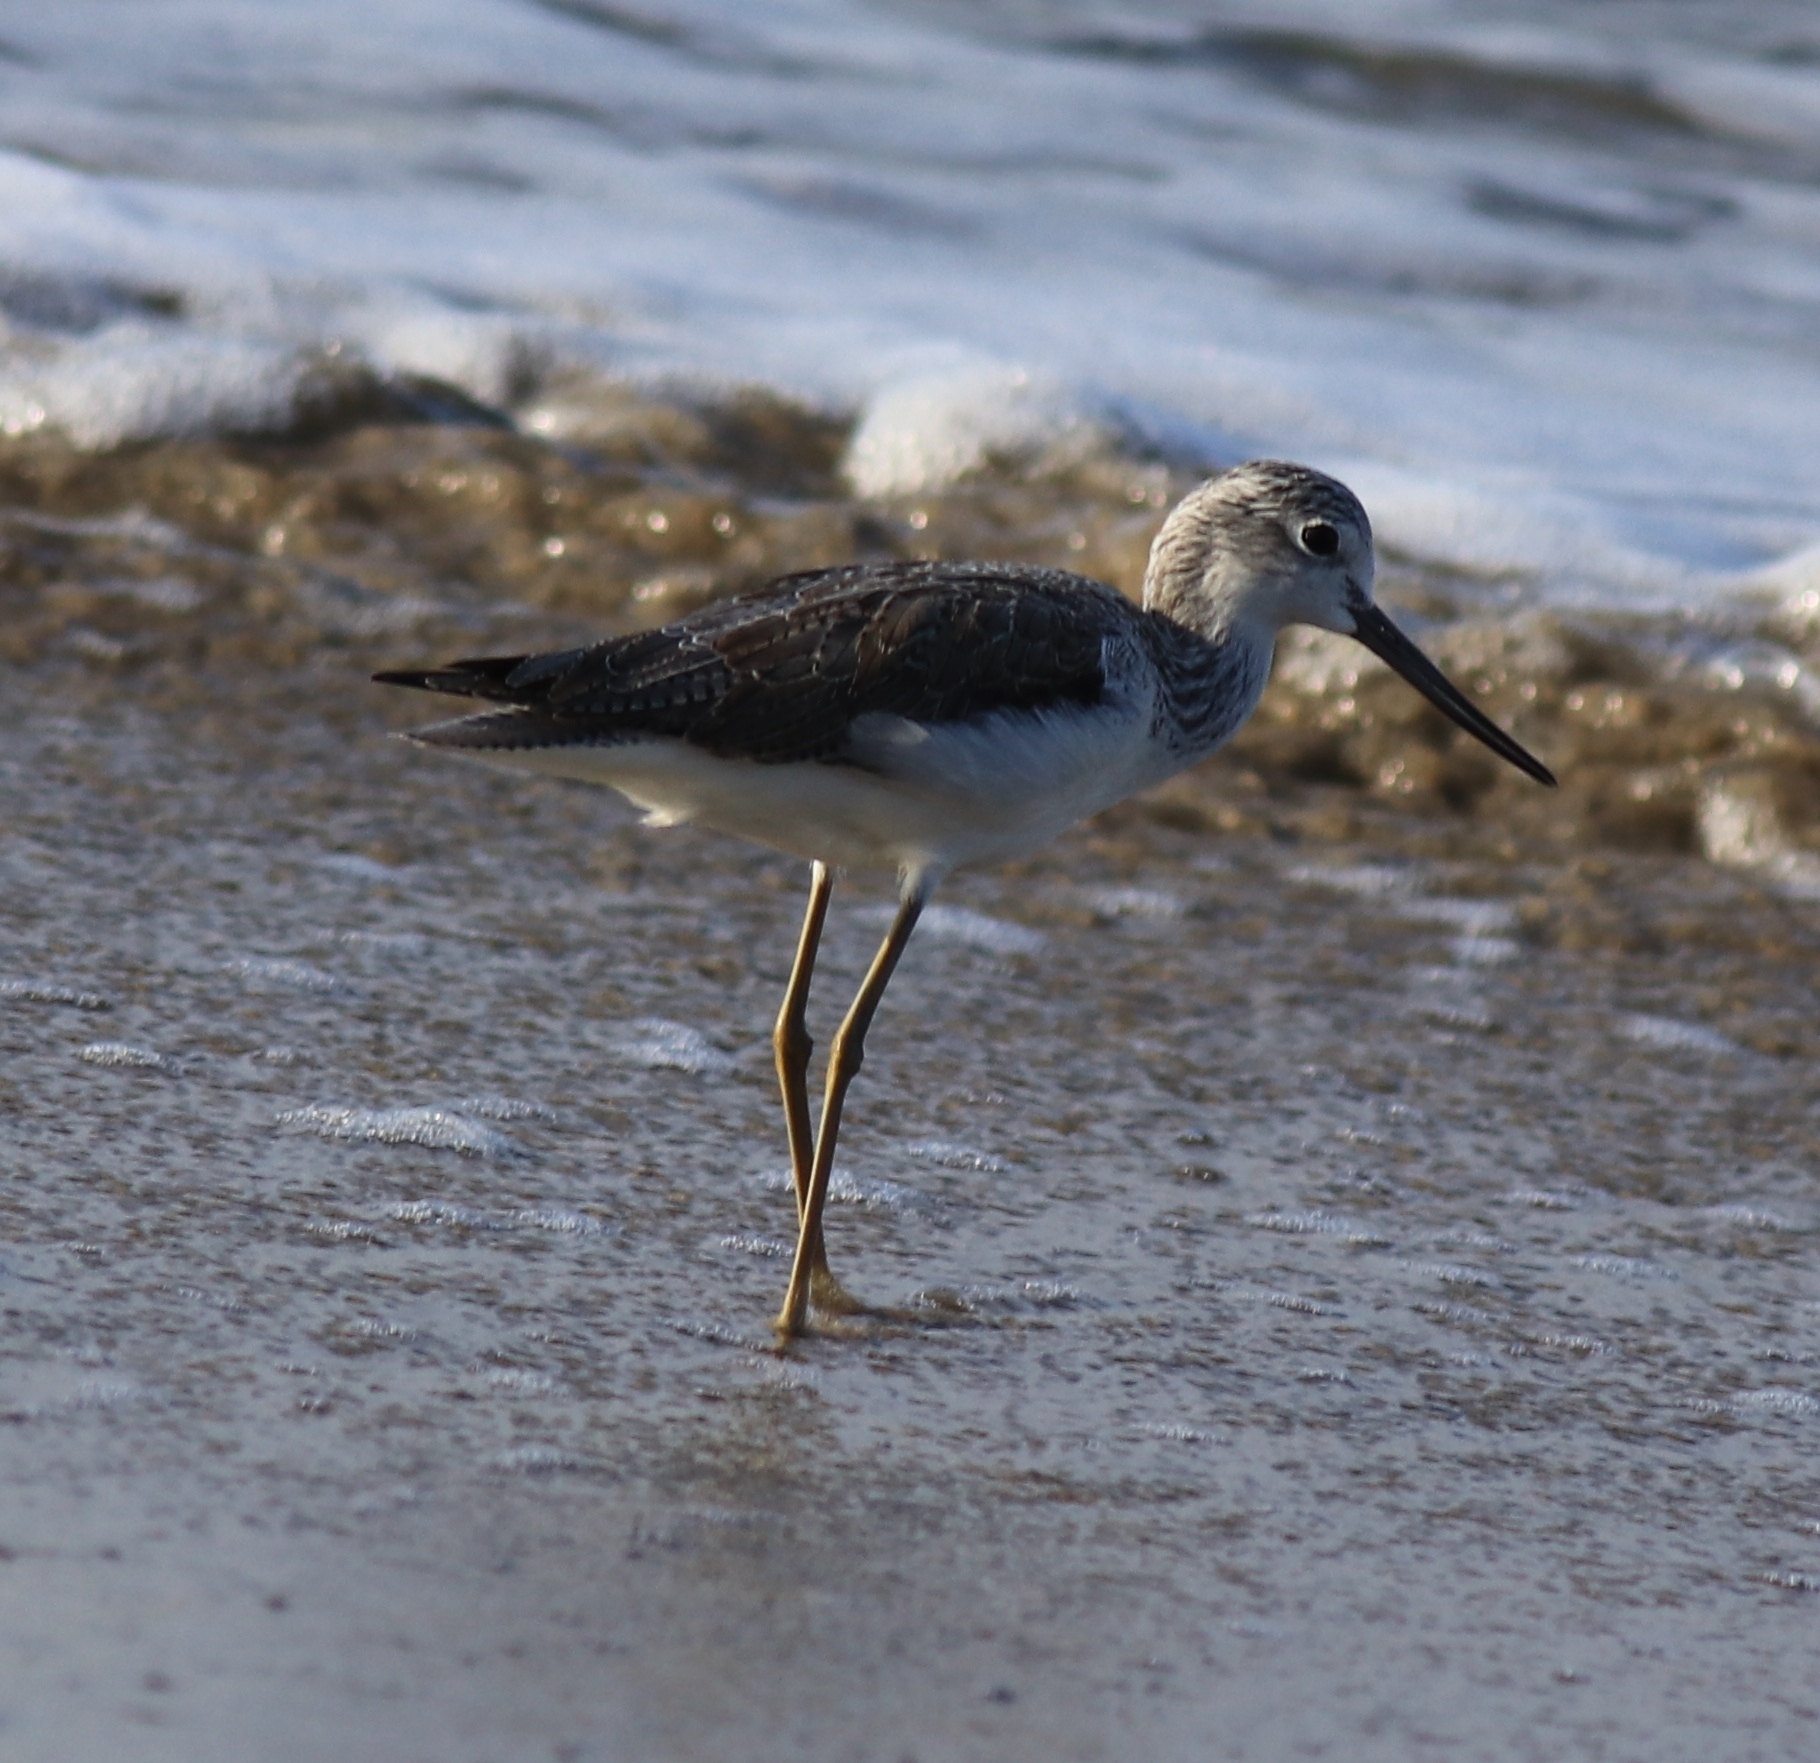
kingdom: Animalia
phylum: Chordata
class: Aves
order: Charadriiformes
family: Scolopacidae
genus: Tringa
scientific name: Tringa nebularia
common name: Common greenshank
